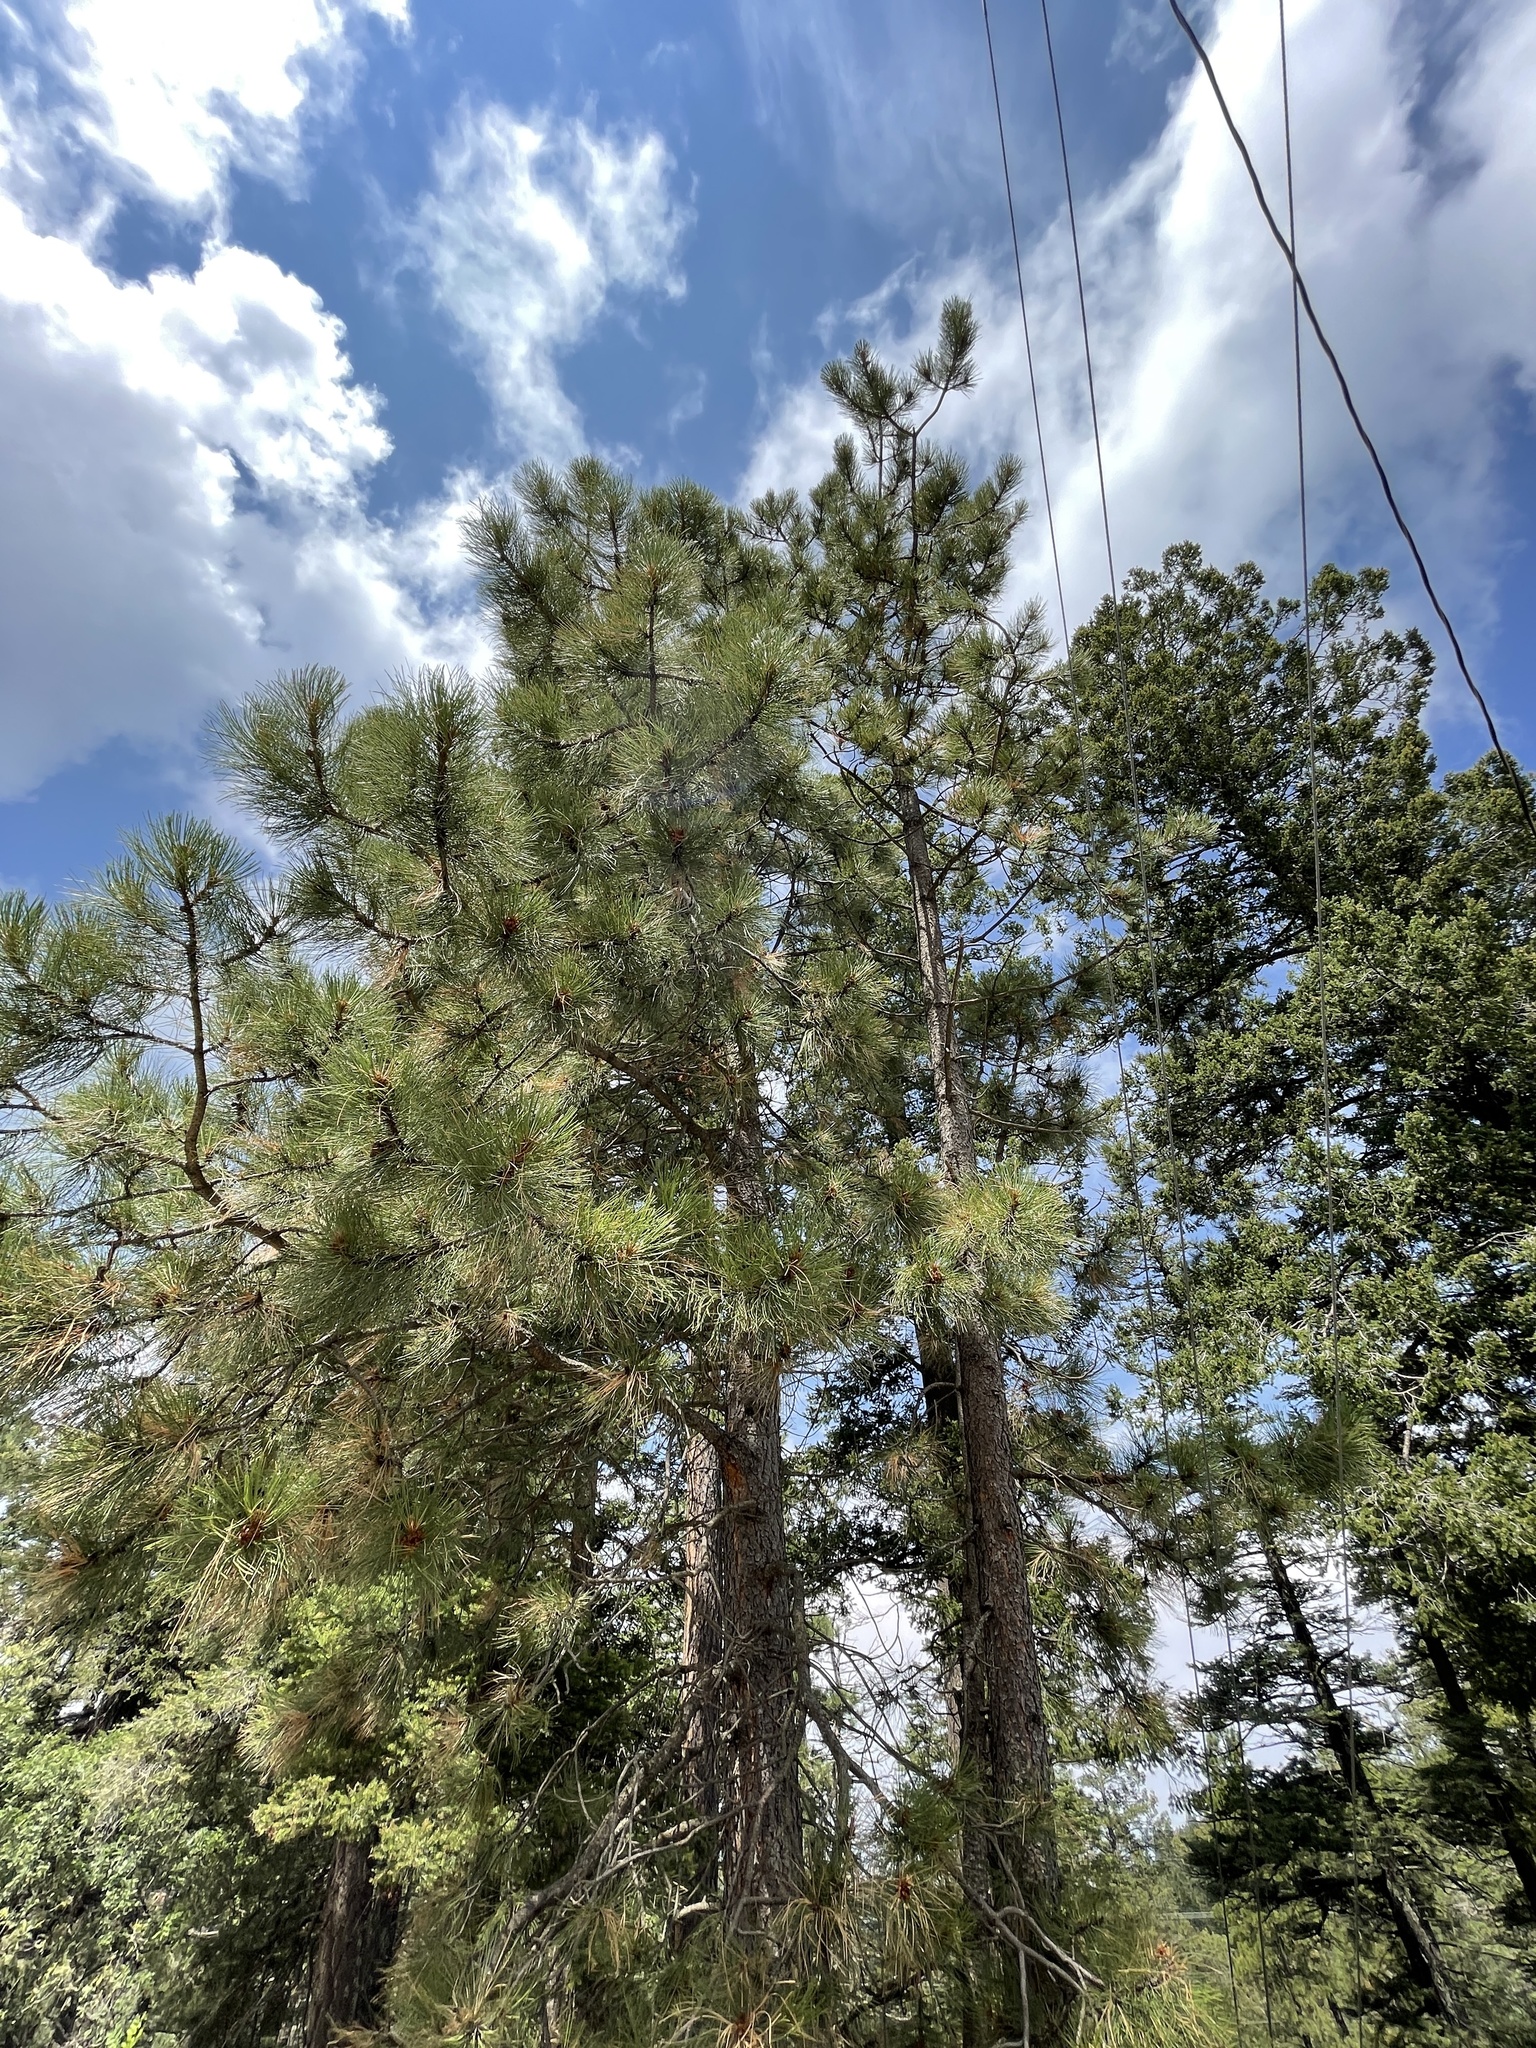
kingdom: Plantae
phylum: Tracheophyta
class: Pinopsida
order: Pinales
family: Pinaceae
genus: Pinus
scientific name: Pinus ponderosa
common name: Western yellow-pine
